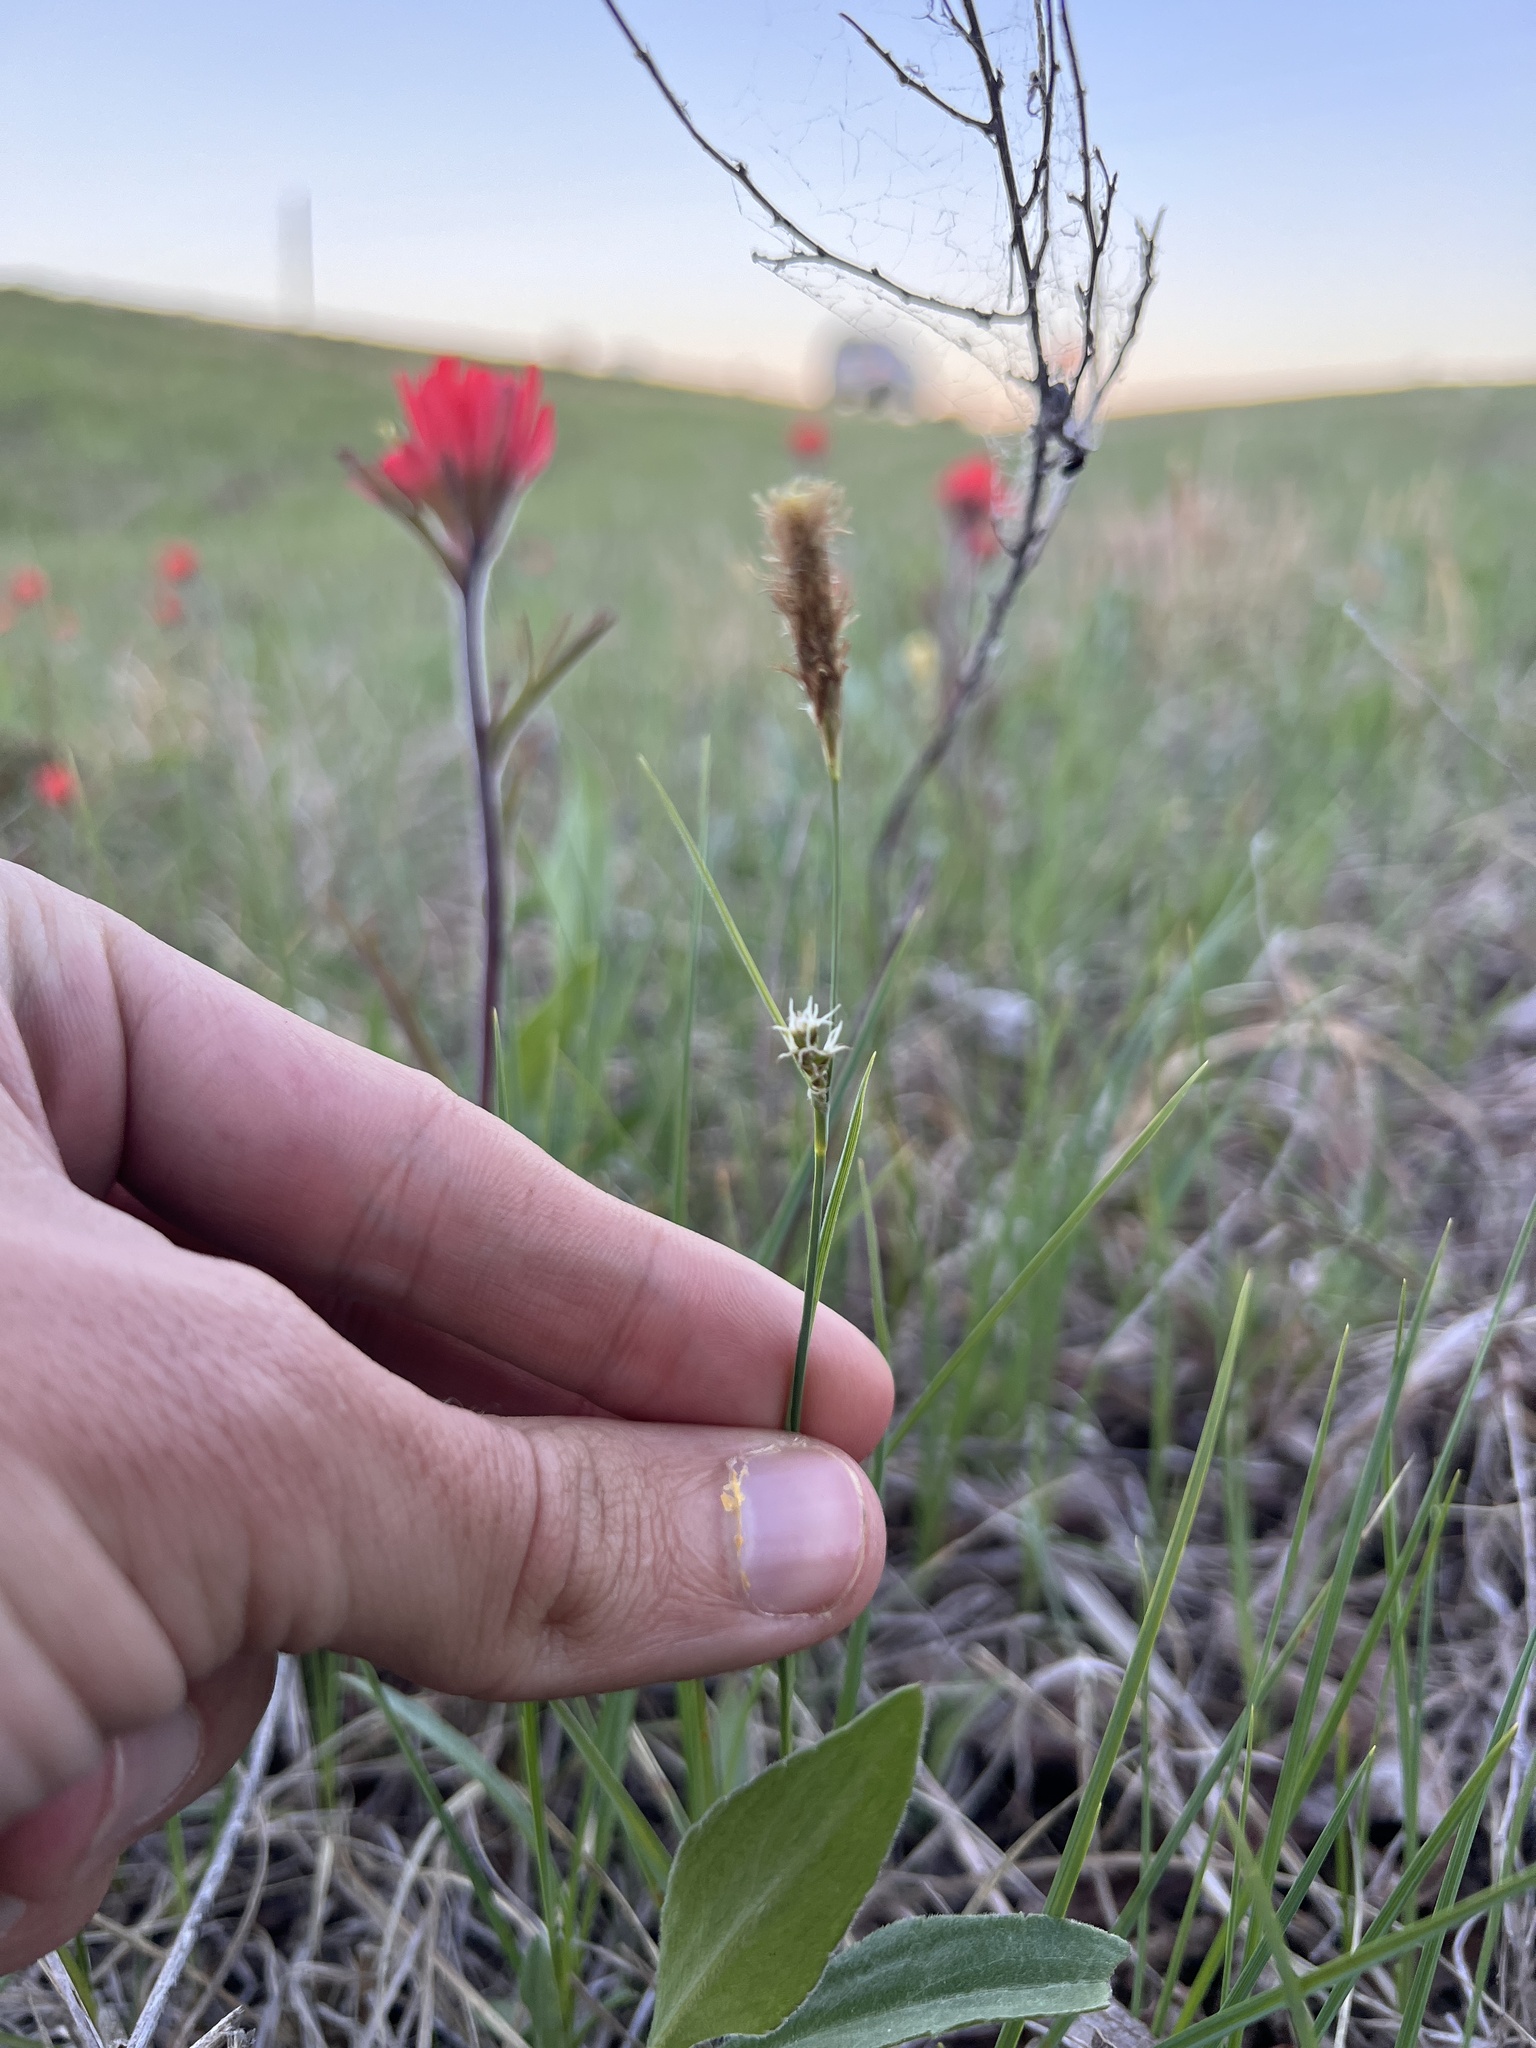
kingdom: Plantae
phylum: Tracheophyta
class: Liliopsida
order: Poales
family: Cyperaceae
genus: Carex
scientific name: Carex meadii
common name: Mead's sedge
